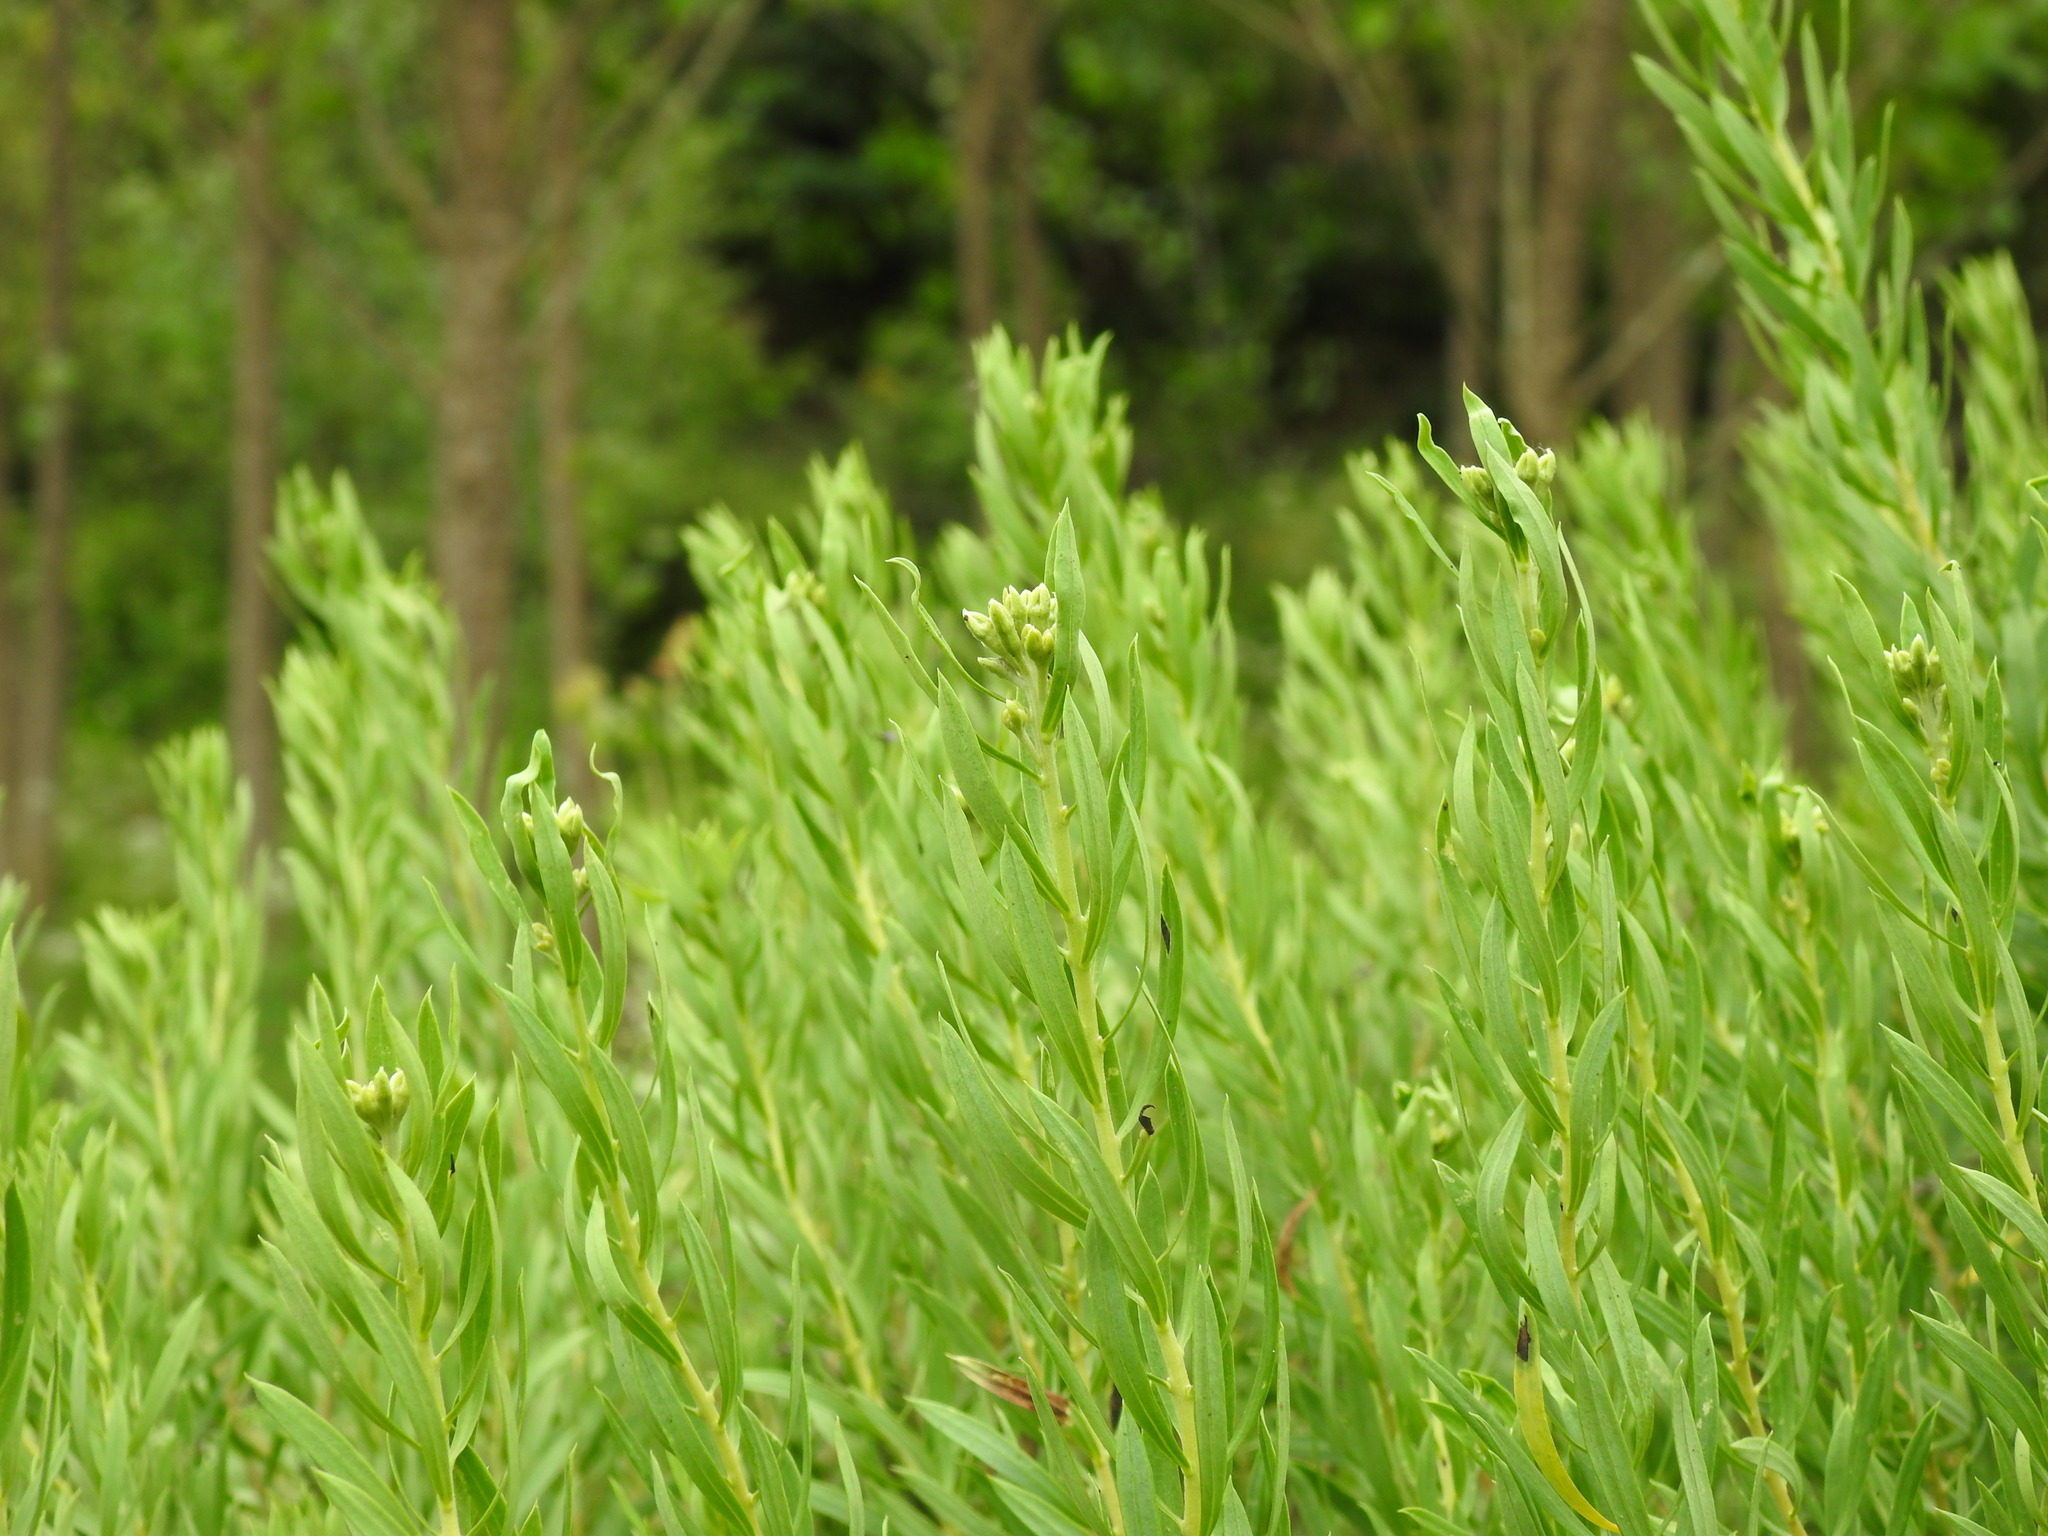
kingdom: Plantae
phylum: Tracheophyta
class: Magnoliopsida
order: Malvales
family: Thymelaeaceae
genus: Daphne
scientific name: Daphne gnidium
